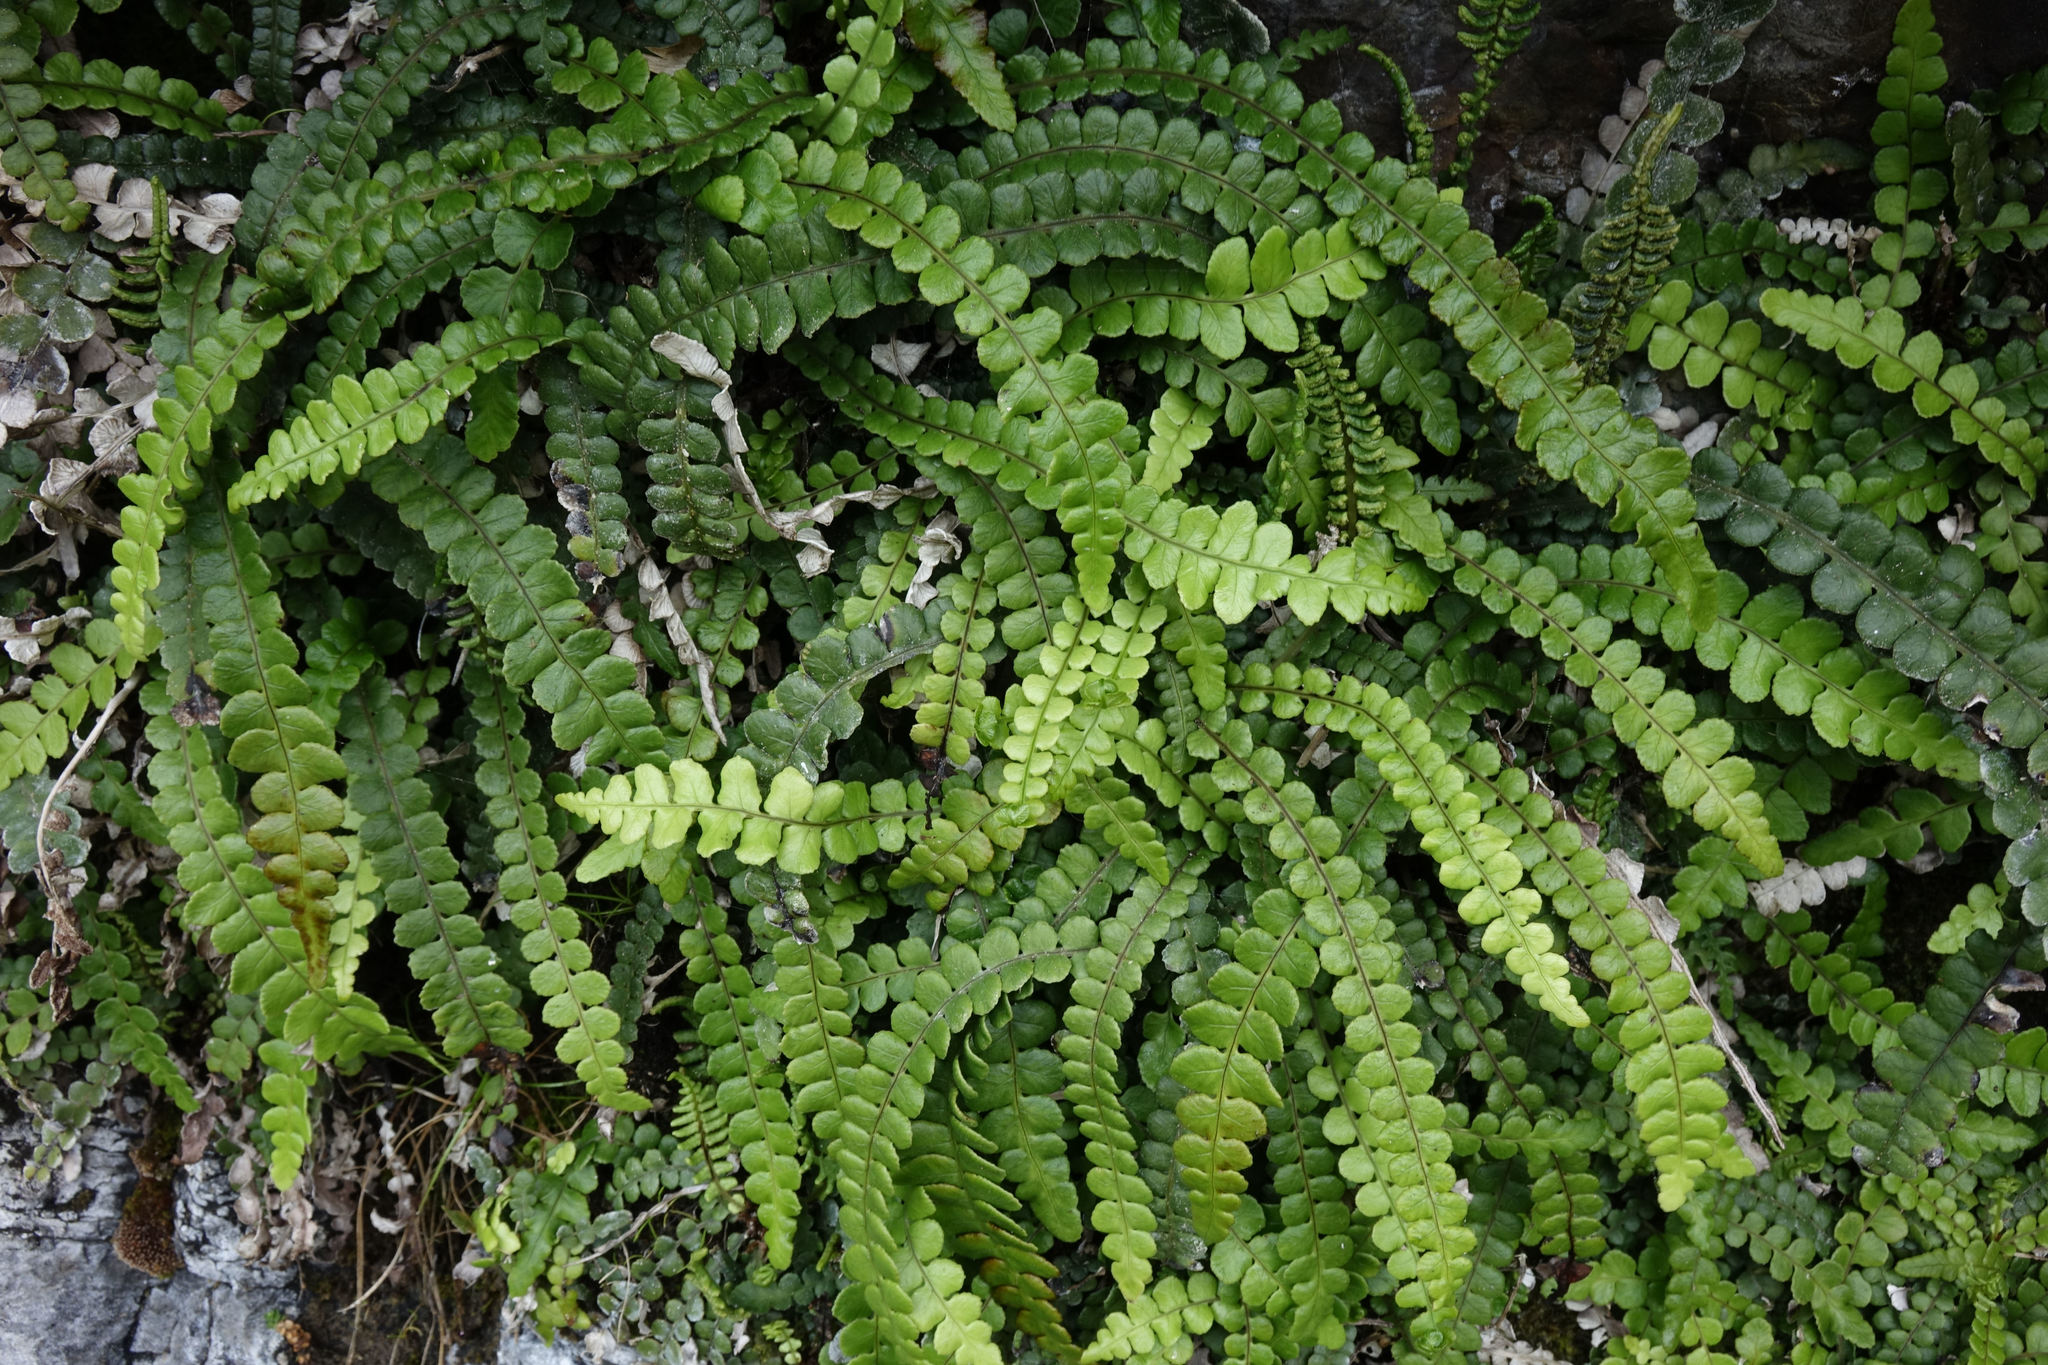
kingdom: Plantae
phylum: Tracheophyta
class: Polypodiopsida
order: Polypodiales
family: Blechnaceae
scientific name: Blechnaceae
